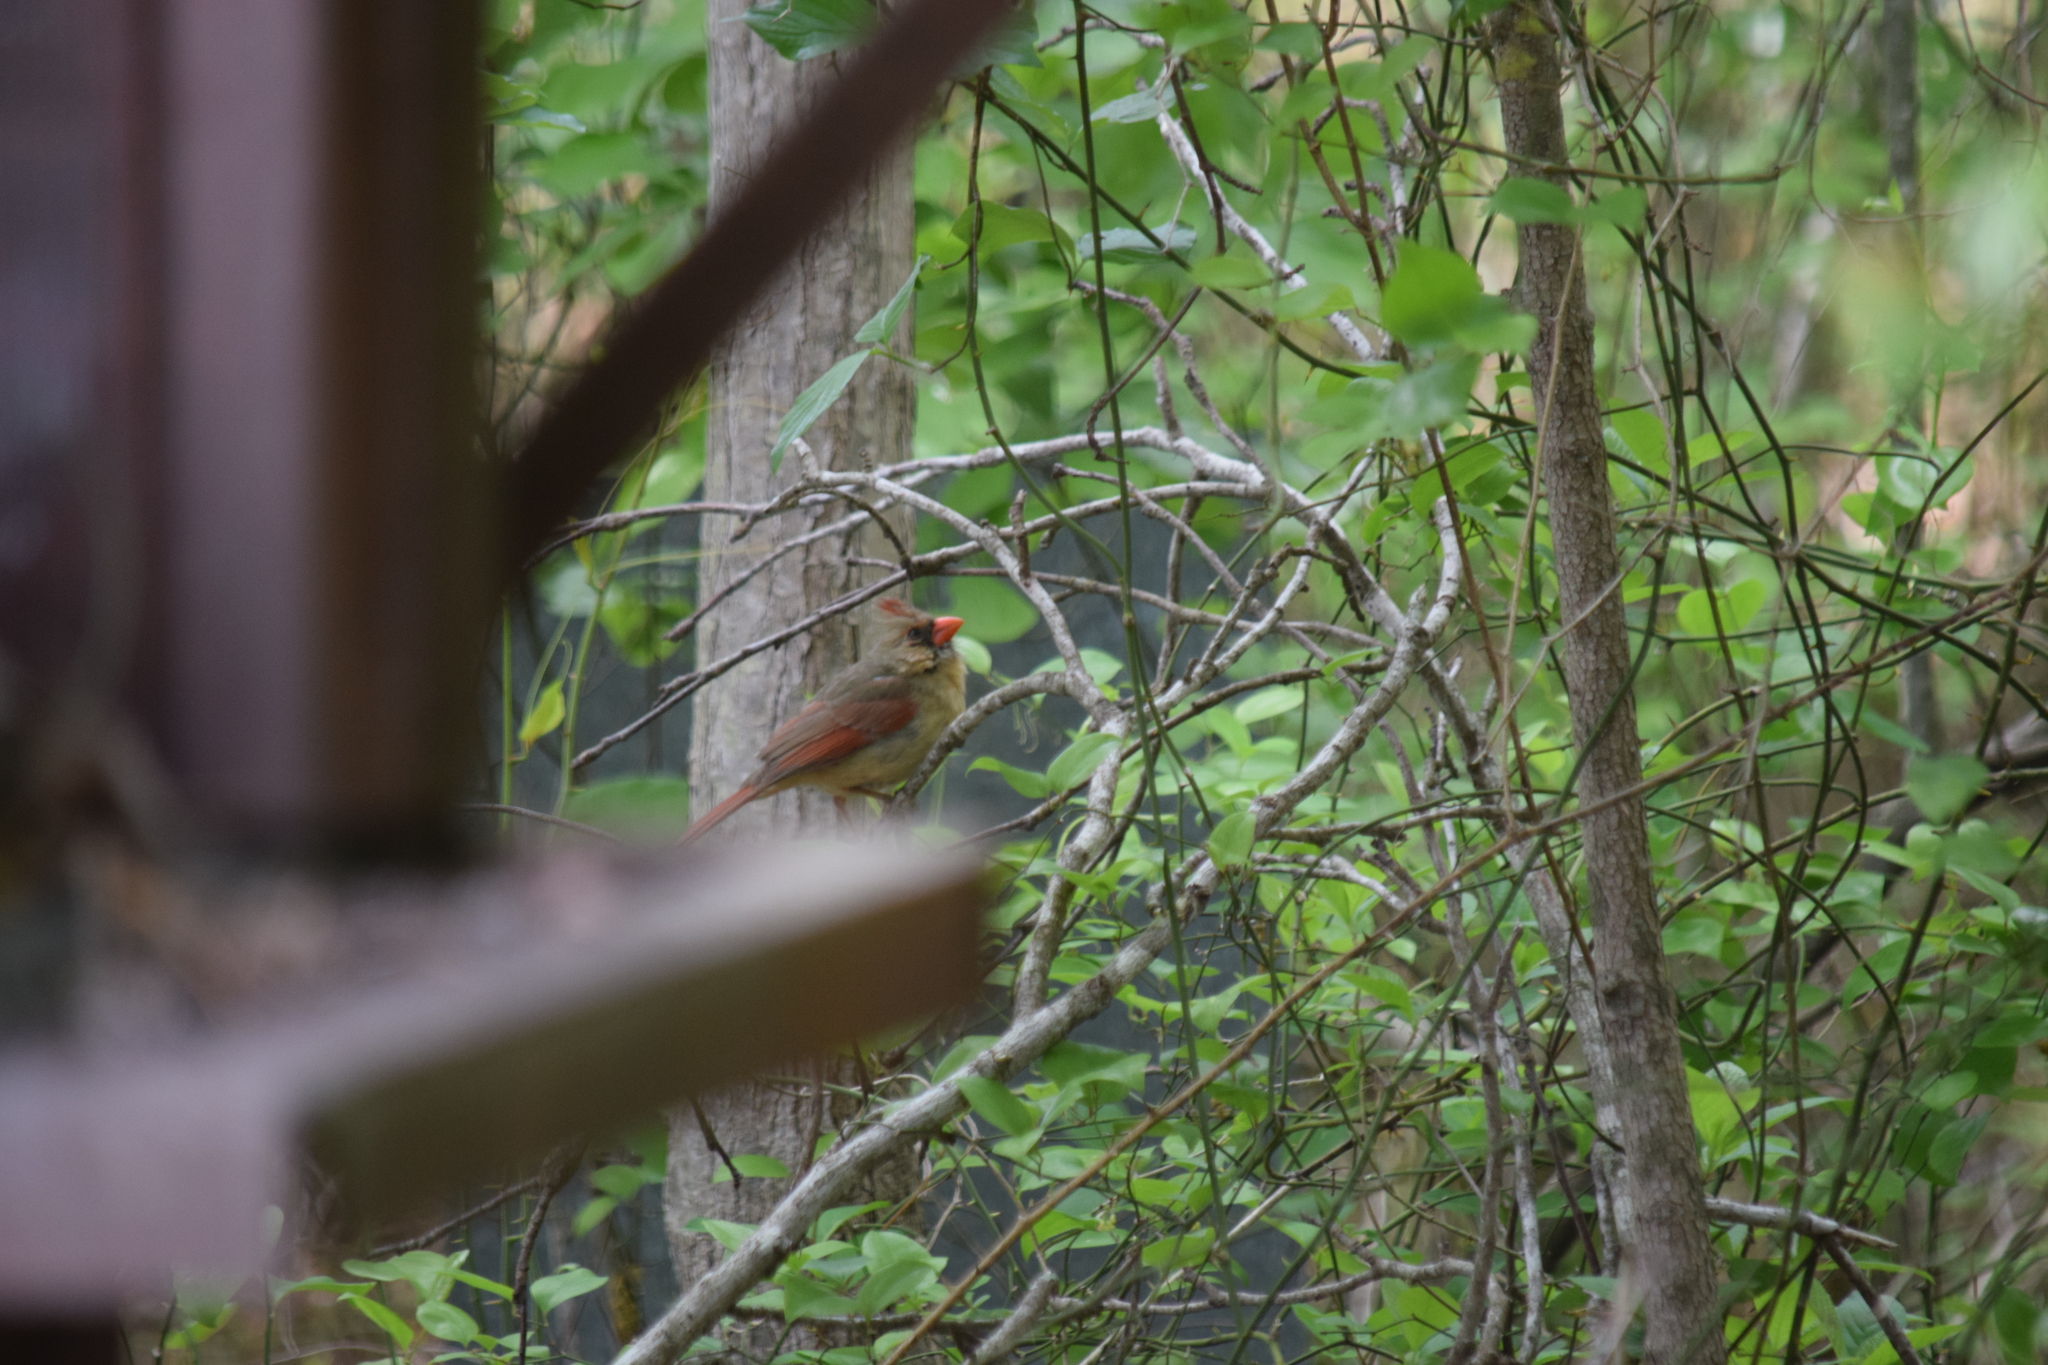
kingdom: Animalia
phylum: Chordata
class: Aves
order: Passeriformes
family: Cardinalidae
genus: Cardinalis
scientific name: Cardinalis cardinalis
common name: Northern cardinal
